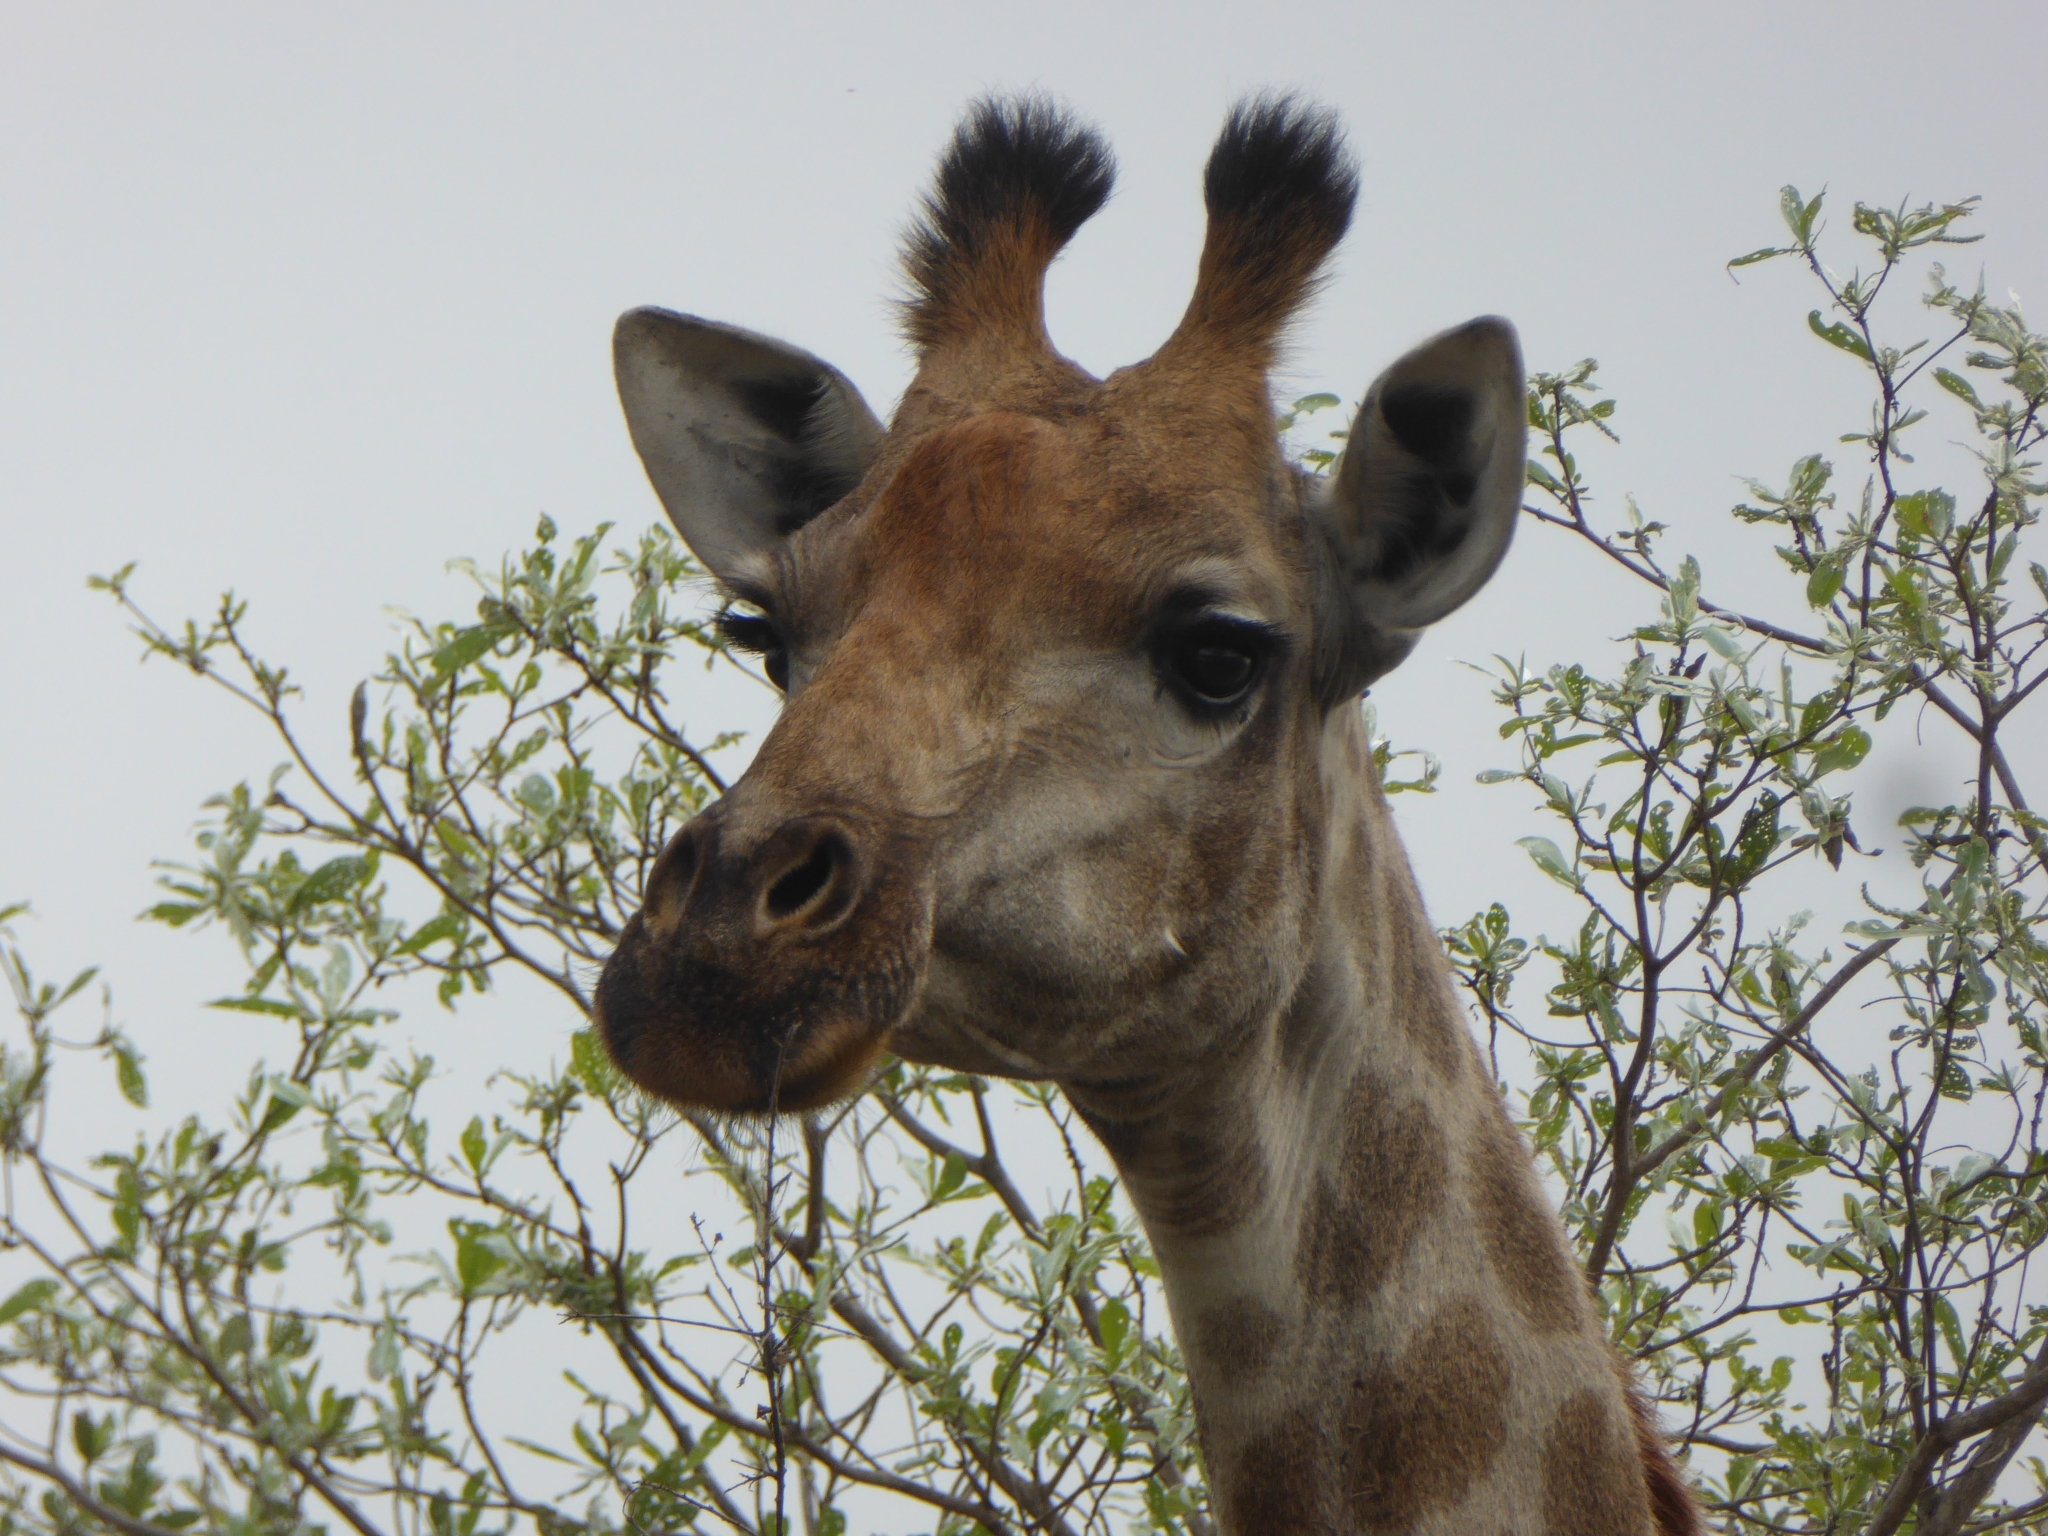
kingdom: Animalia
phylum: Chordata
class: Mammalia
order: Artiodactyla
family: Giraffidae
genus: Giraffa
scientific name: Giraffa giraffa
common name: Southern giraffe
